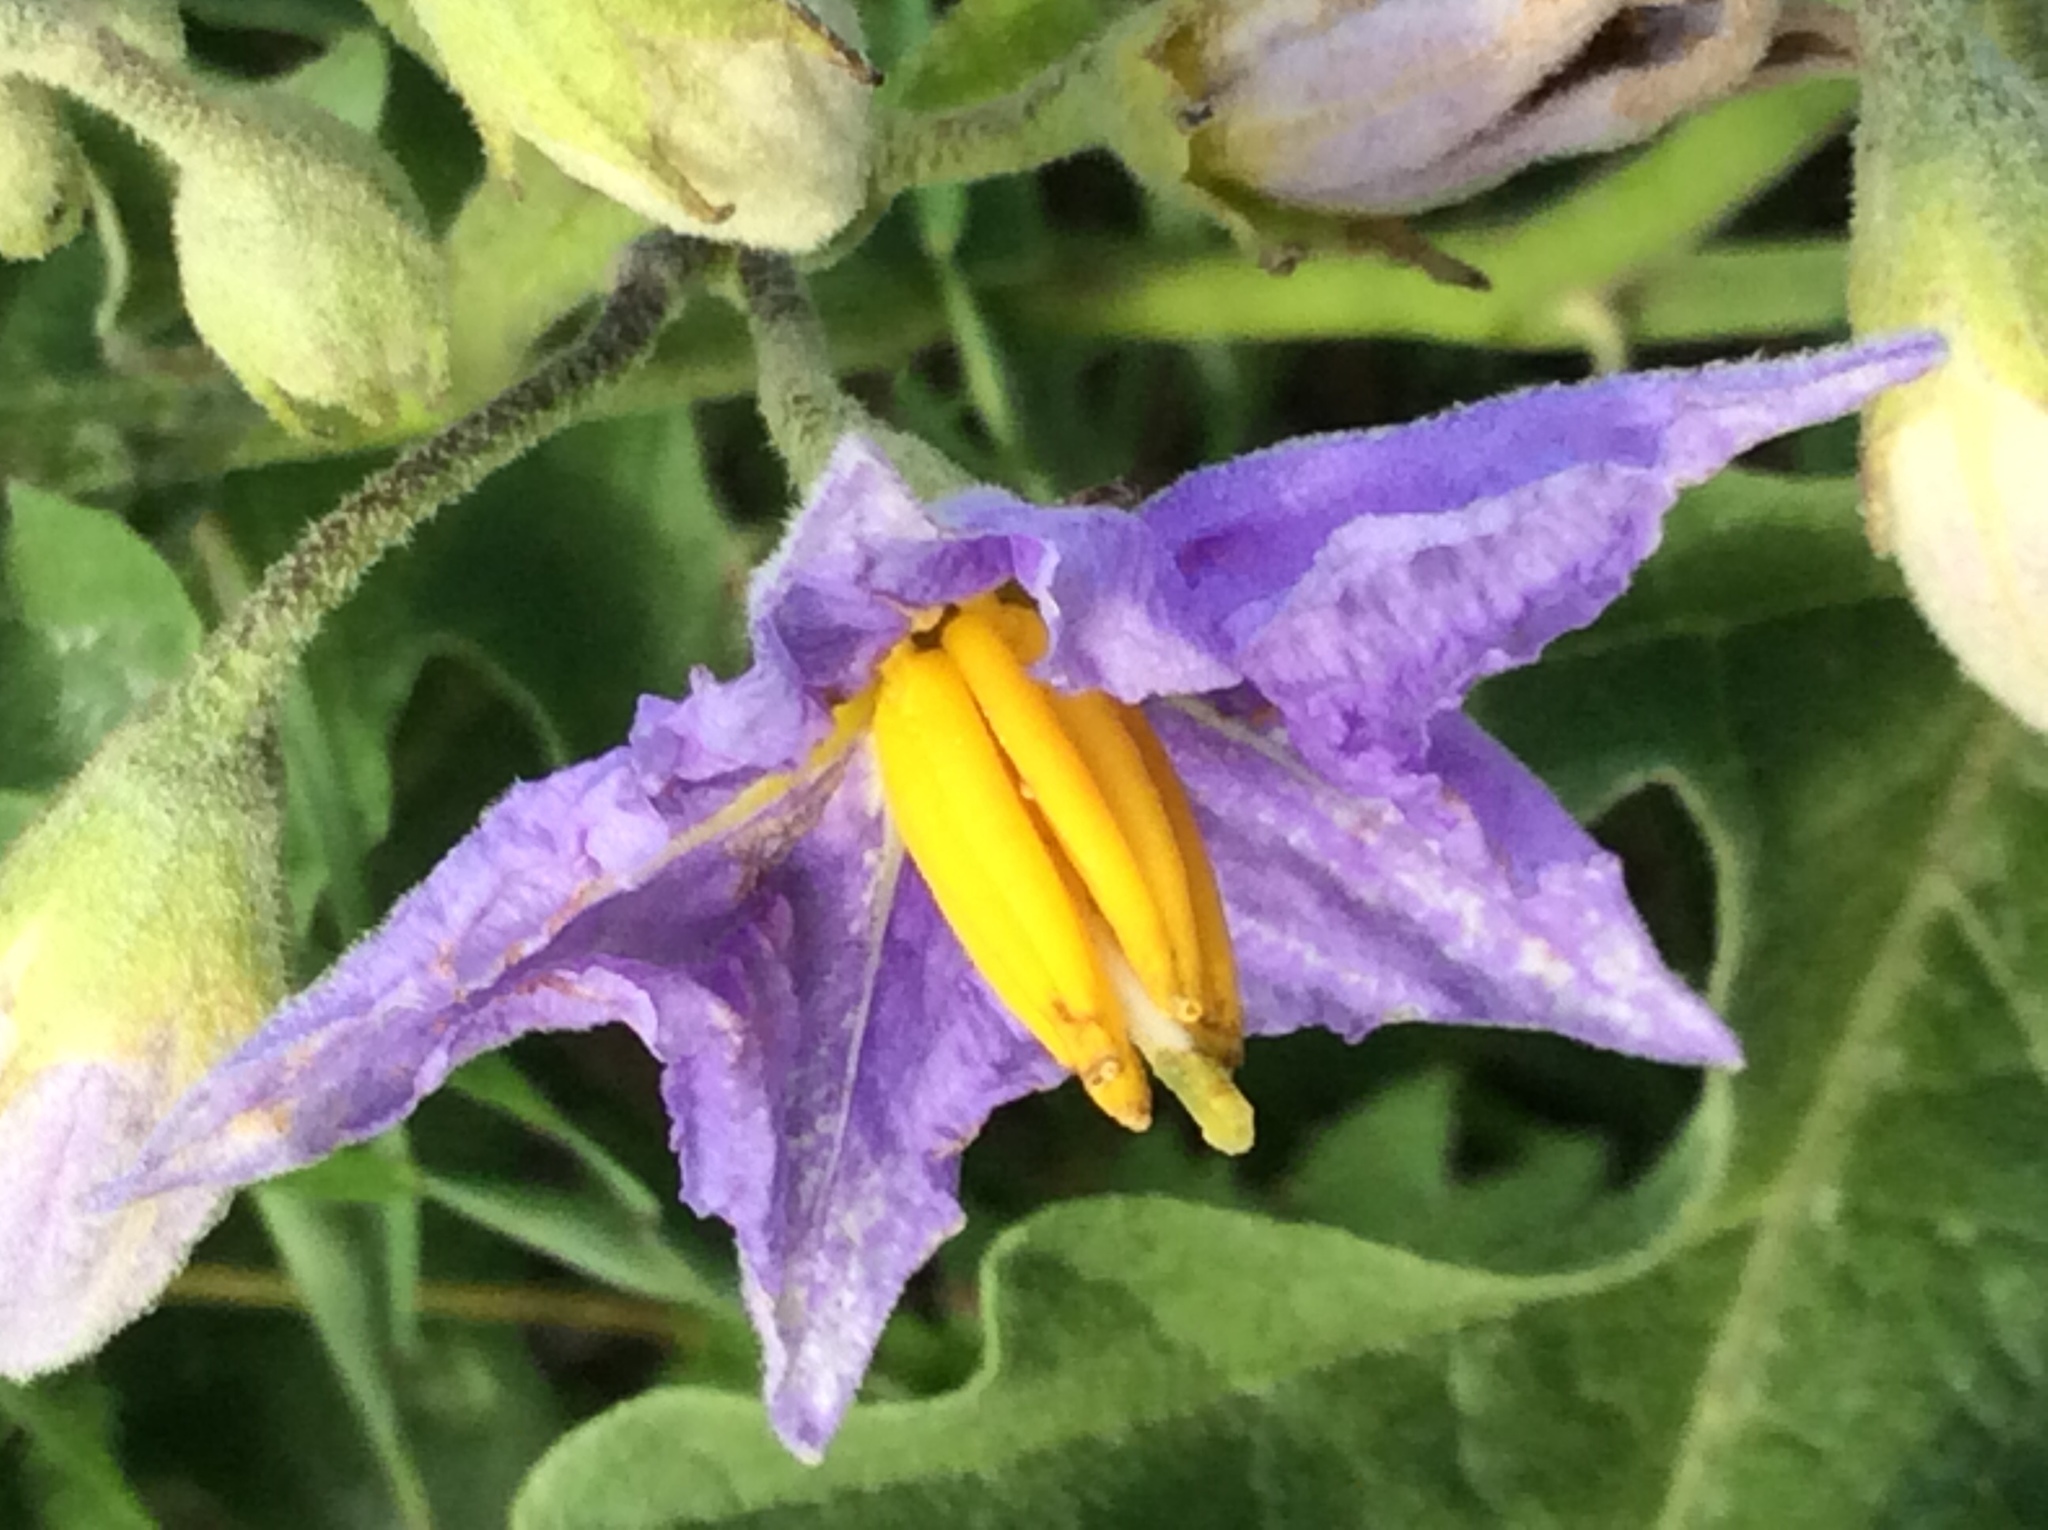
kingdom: Plantae
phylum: Tracheophyta
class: Magnoliopsida
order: Solanales
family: Solanaceae
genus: Solanum
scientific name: Solanum dimidiatum
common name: Carolina horse-nettle
